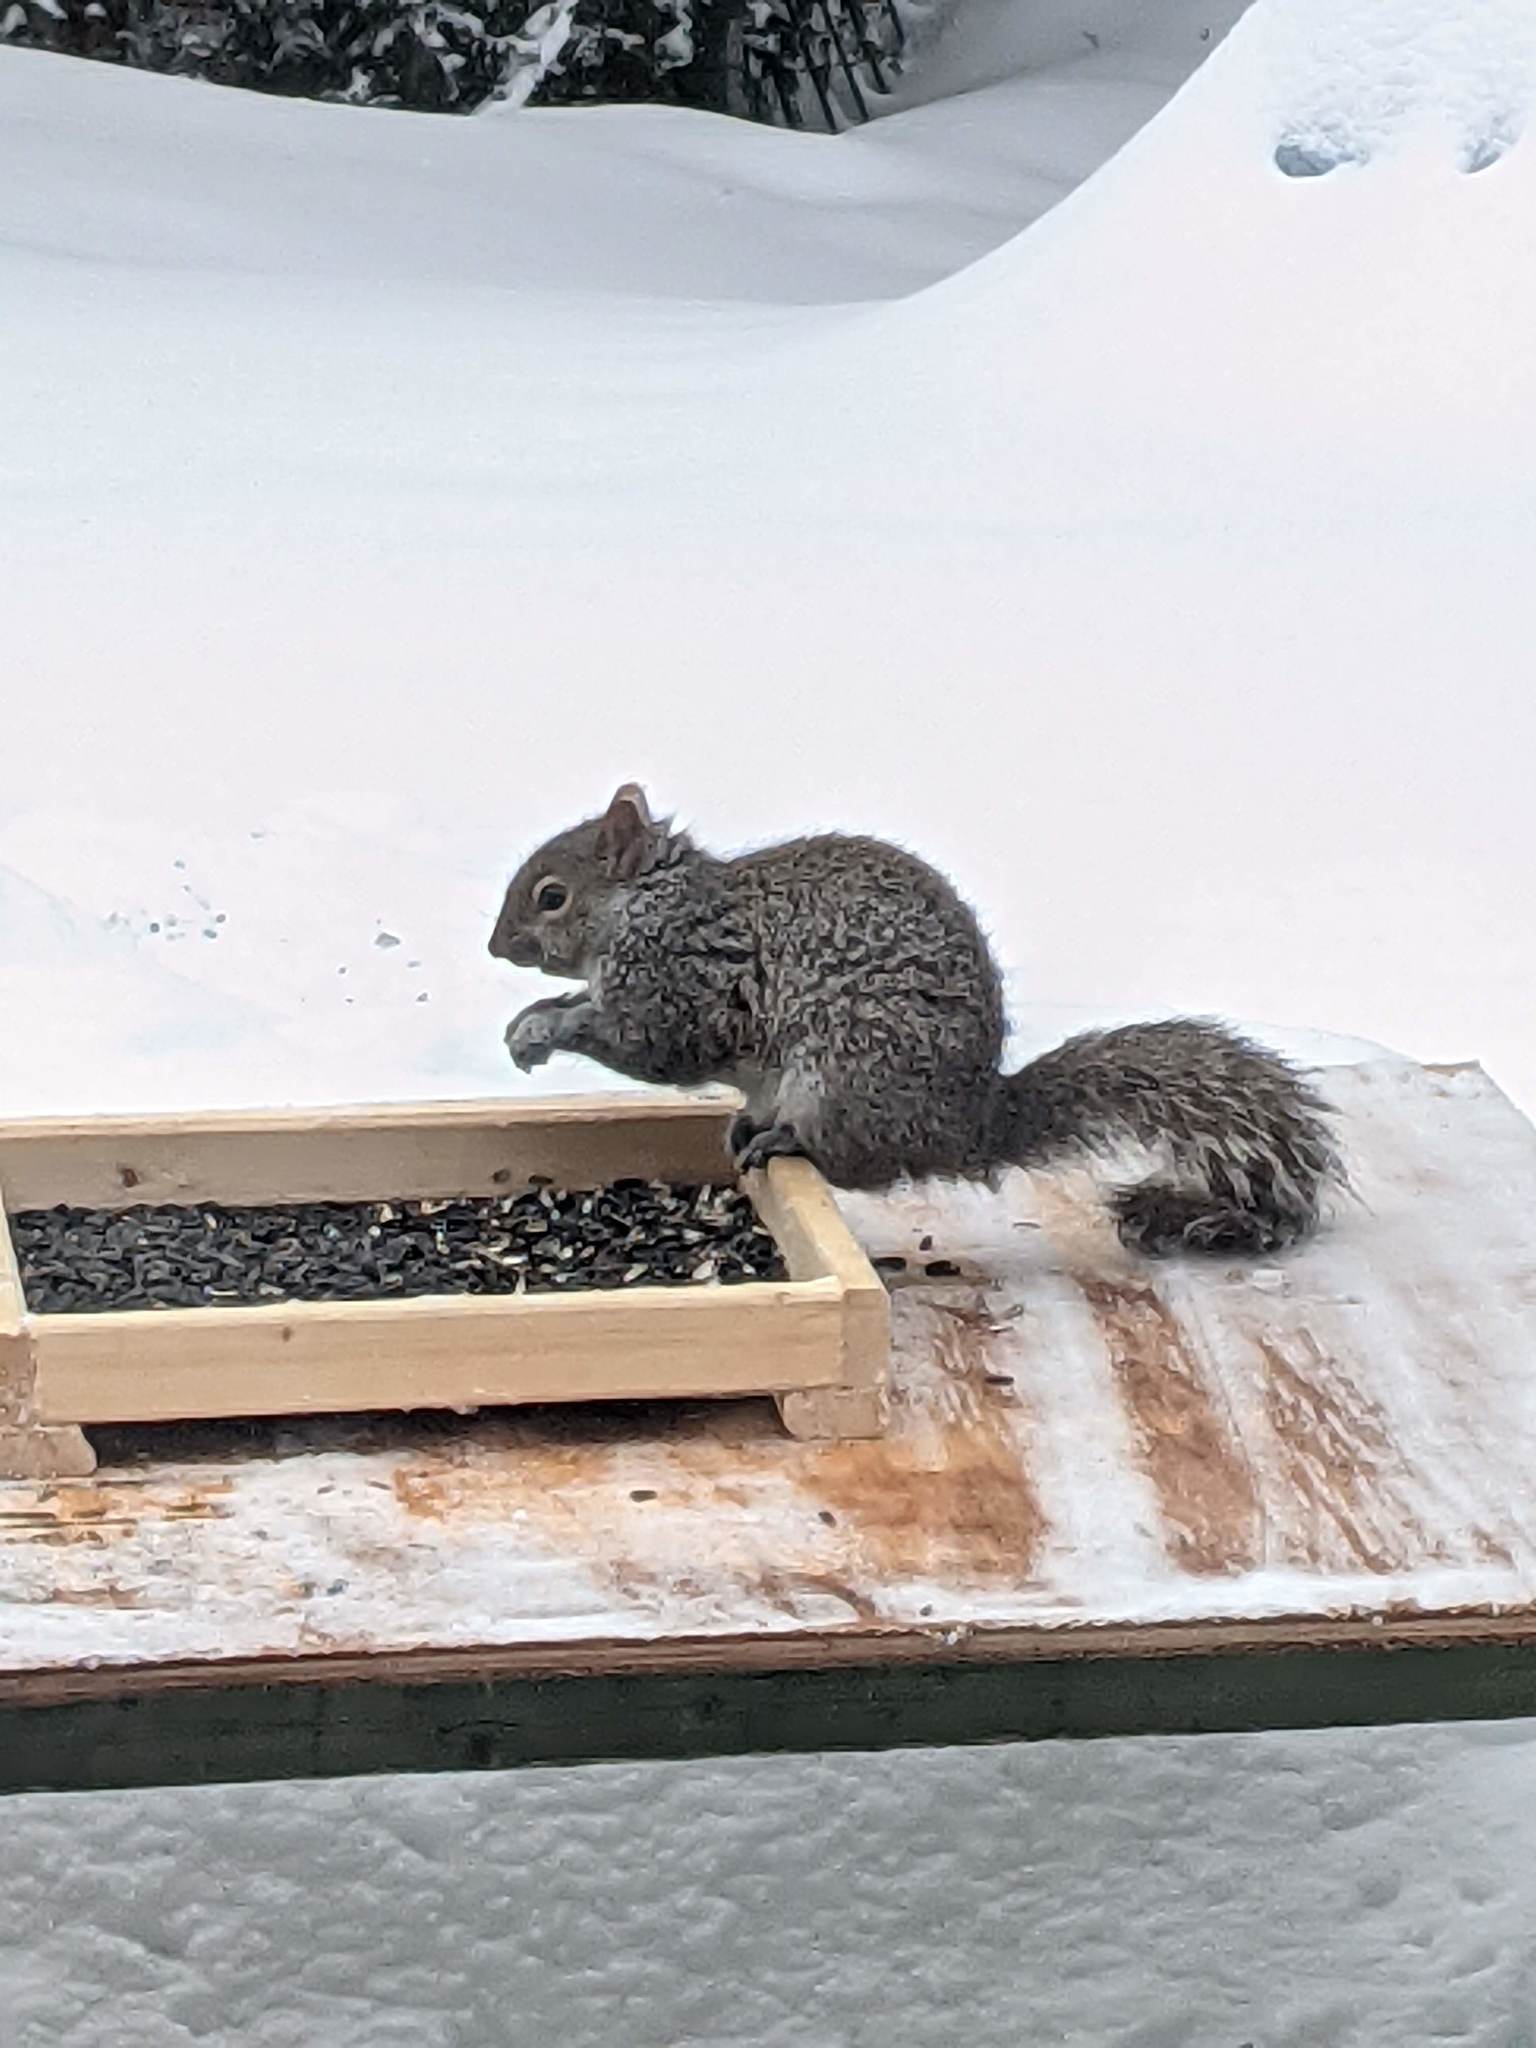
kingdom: Animalia
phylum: Chordata
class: Mammalia
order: Rodentia
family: Sciuridae
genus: Sciurus
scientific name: Sciurus carolinensis
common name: Eastern gray squirrel
